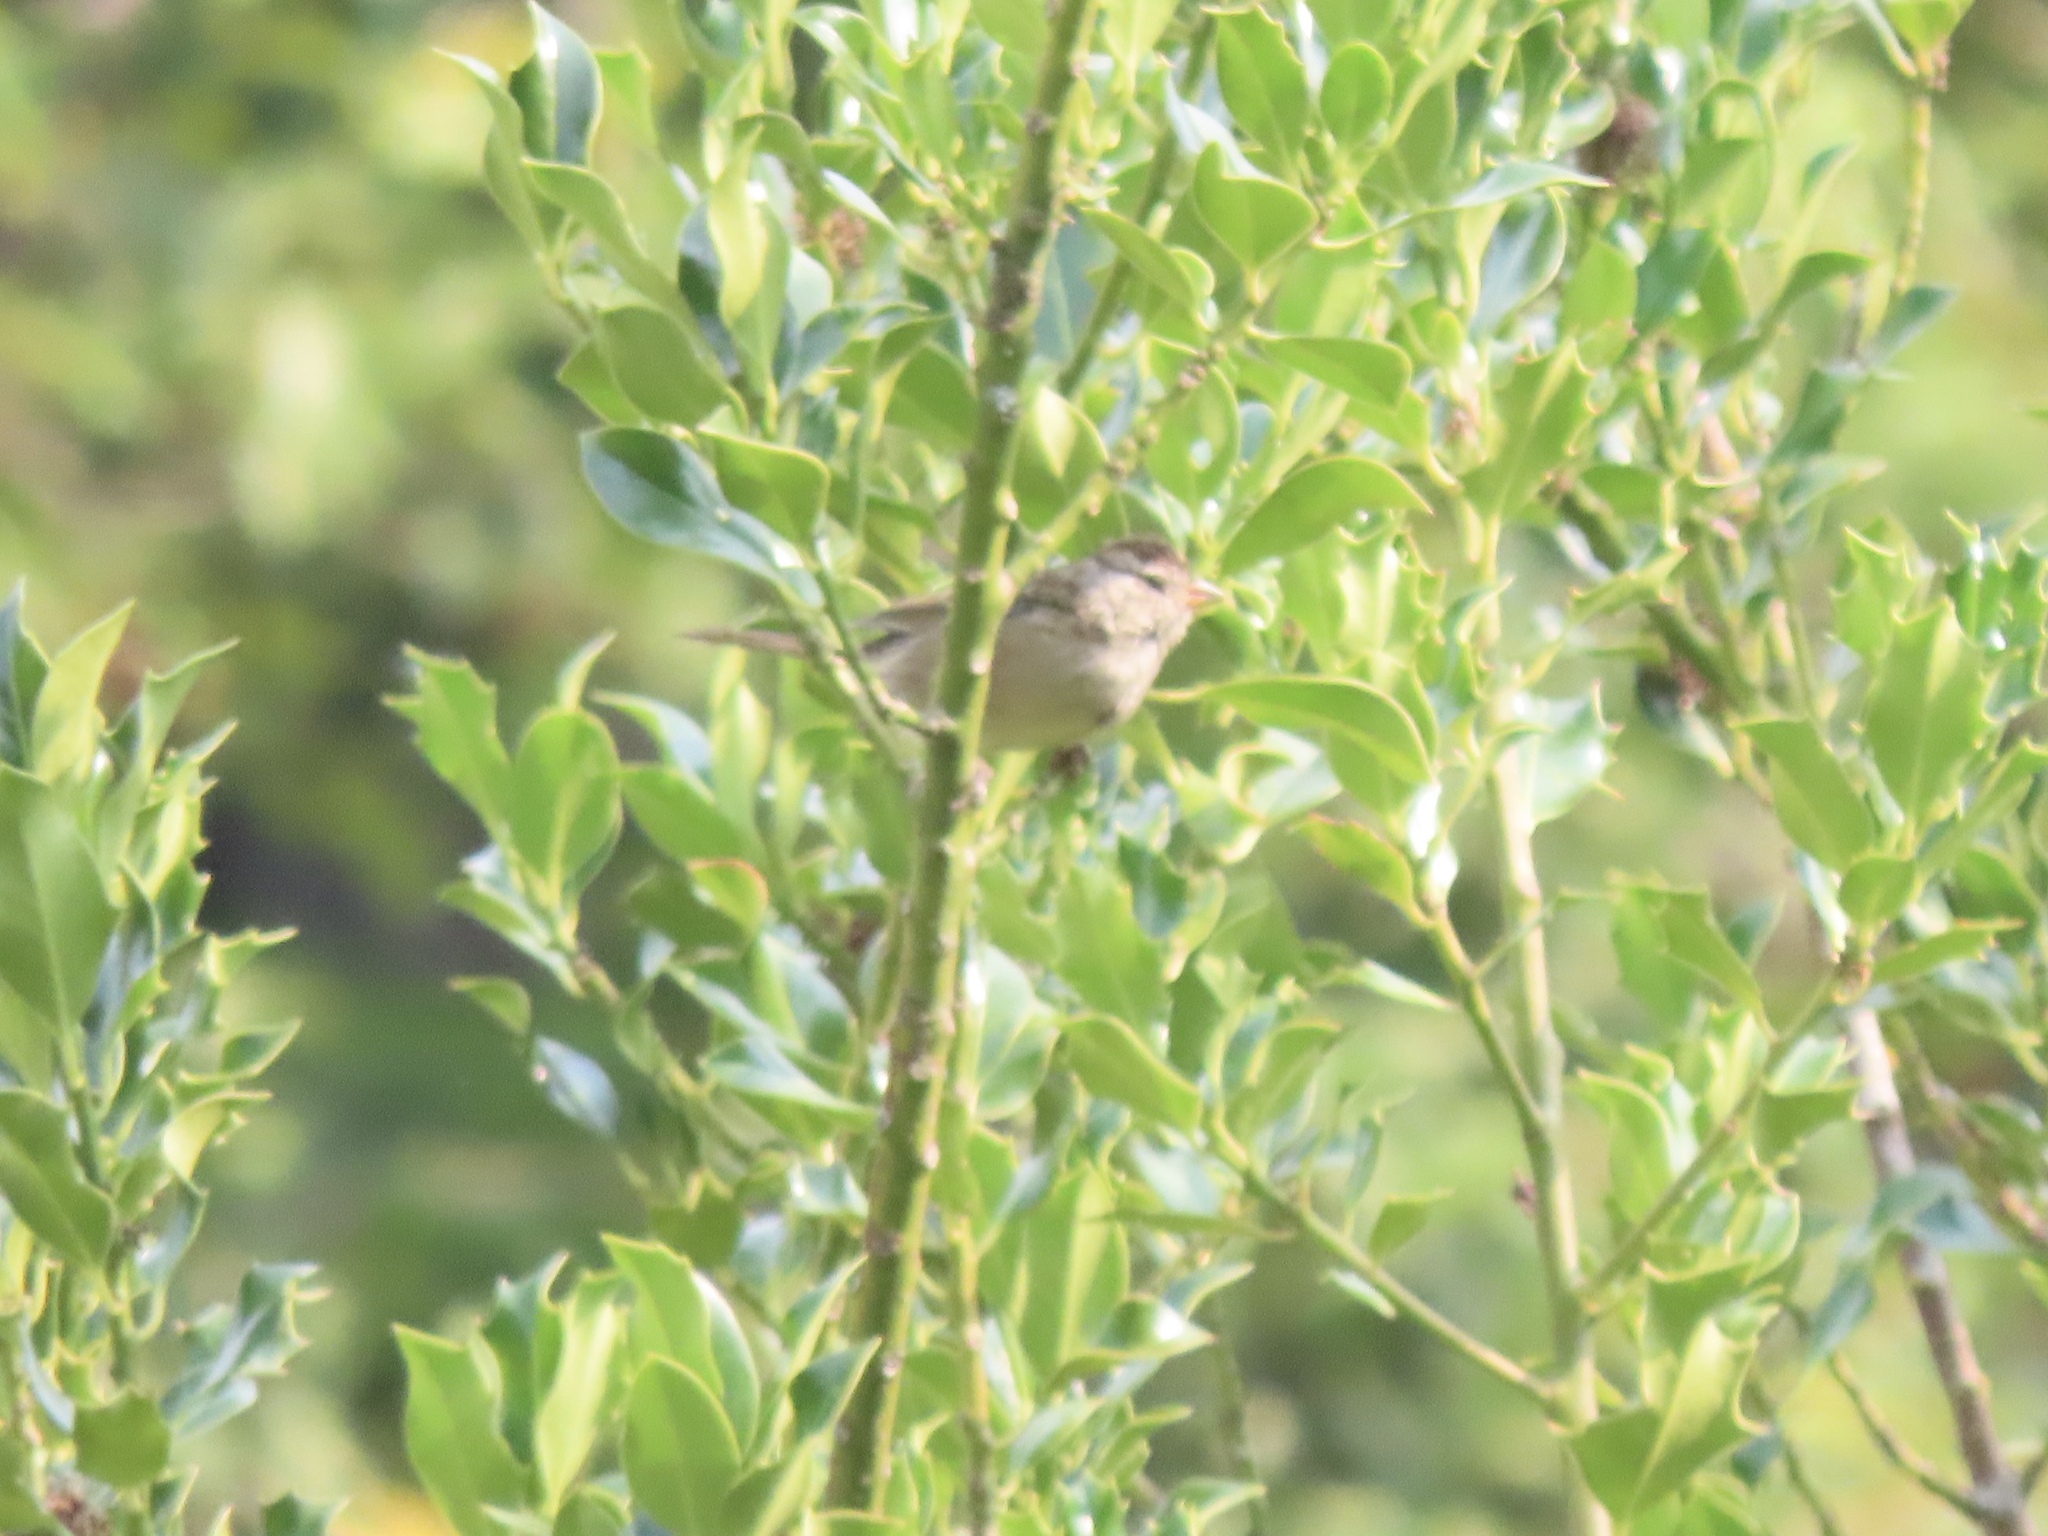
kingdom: Animalia
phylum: Chordata
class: Aves
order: Passeriformes
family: Passerellidae
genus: Zonotrichia
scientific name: Zonotrichia leucophrys
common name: White-crowned sparrow
